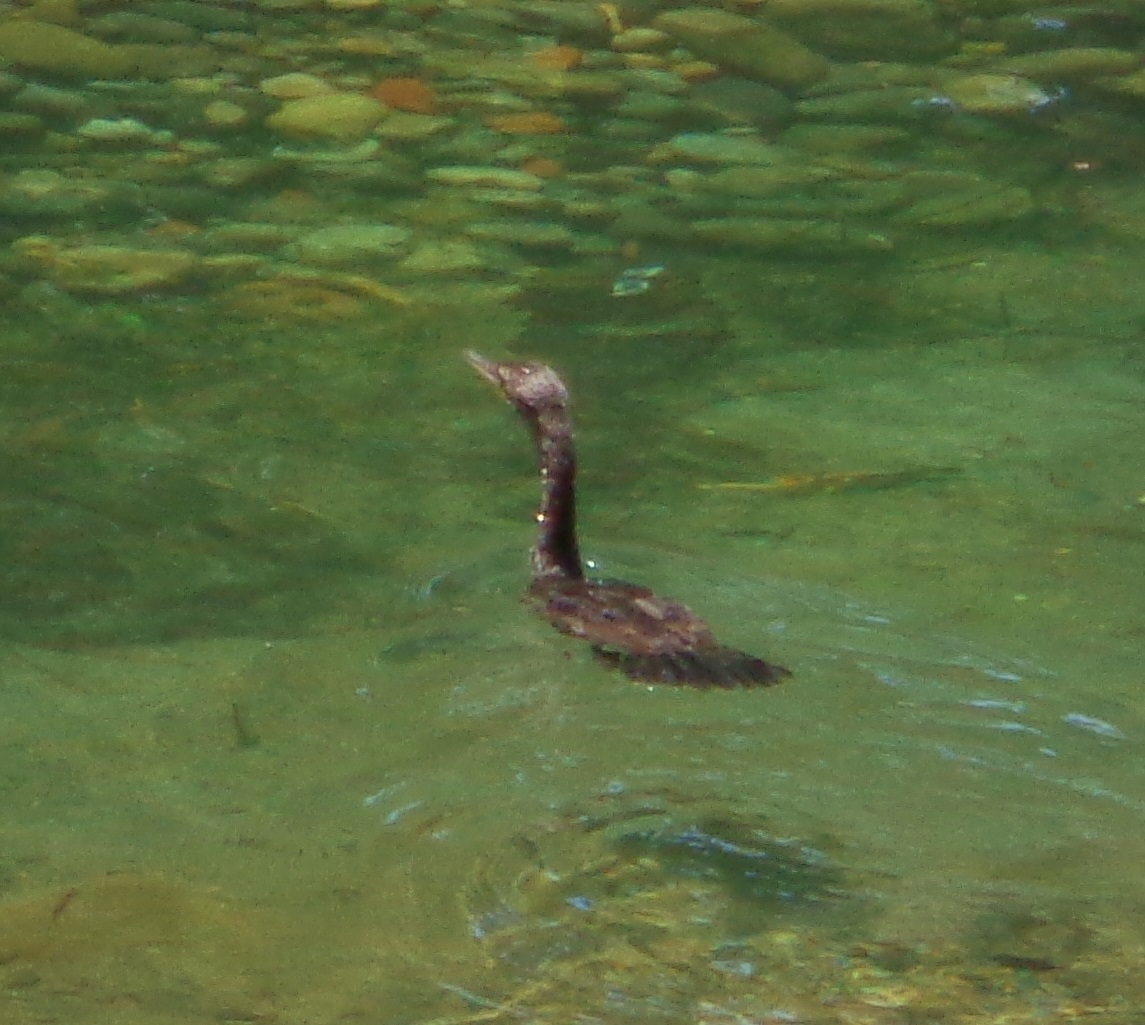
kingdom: Animalia
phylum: Chordata
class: Aves
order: Suliformes
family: Phalacrocoracidae
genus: Phalacrocorax
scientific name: Phalacrocorax brasilianus
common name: Neotropic cormorant
